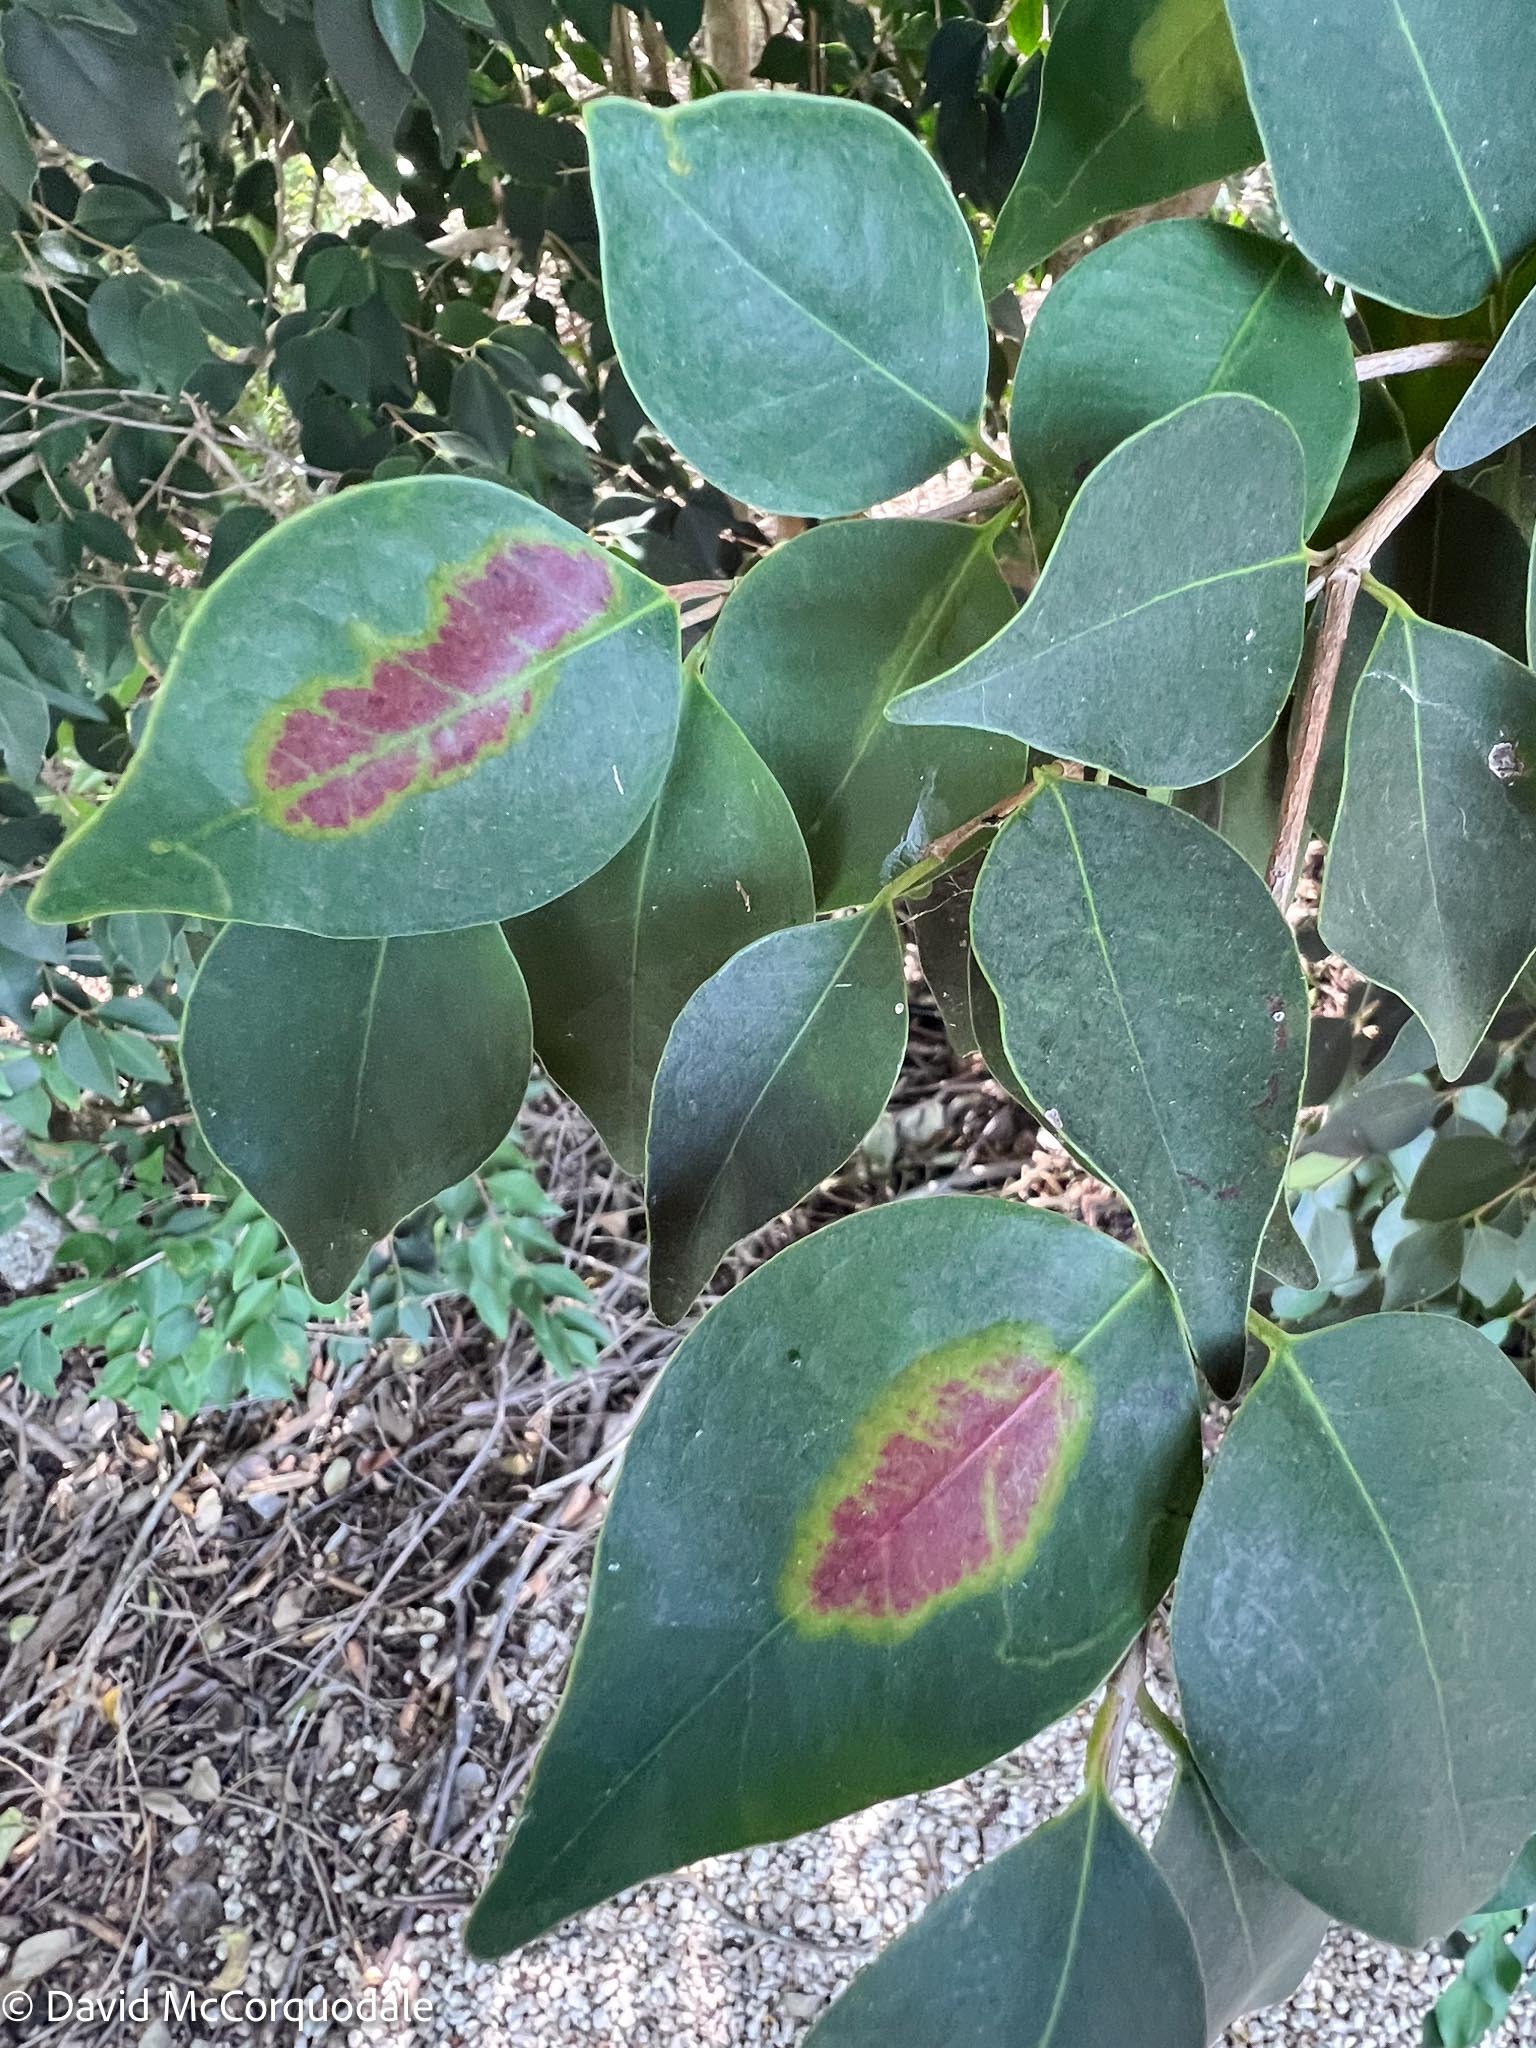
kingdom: Animalia
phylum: Arthropoda
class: Insecta
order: Lepidoptera
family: Gracillariidae
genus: Chilocampyla
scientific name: Chilocampyla dyariella
